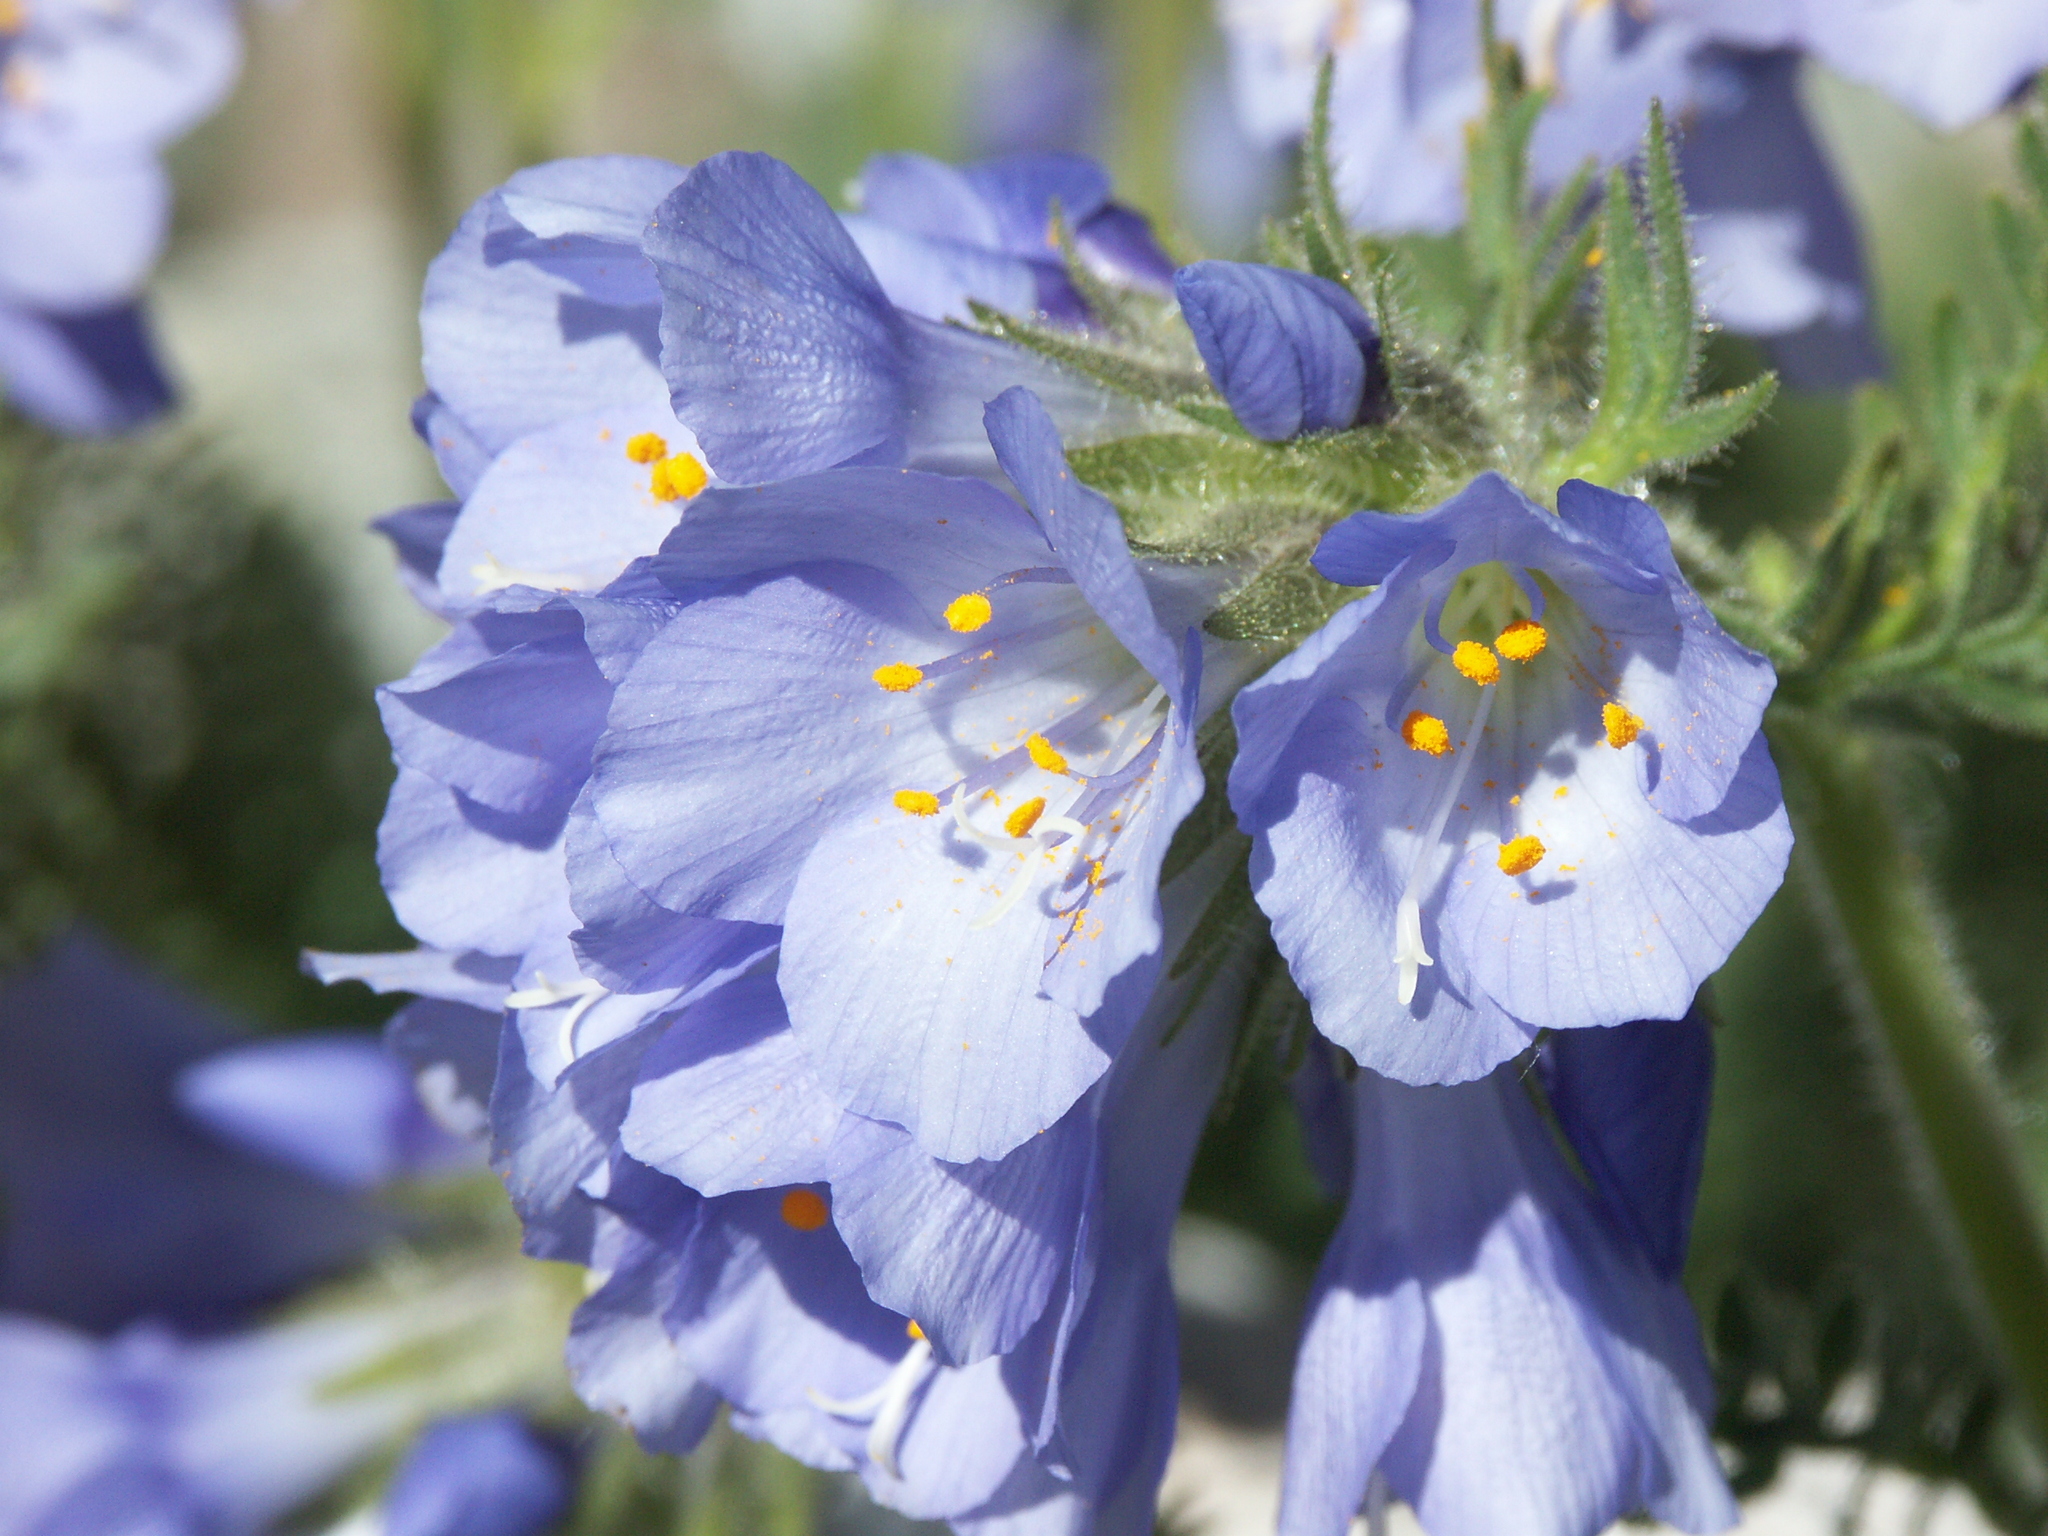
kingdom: Plantae
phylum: Tracheophyta
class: Magnoliopsida
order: Ericales
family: Polemoniaceae
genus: Polemonium
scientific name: Polemonium viscosum
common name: Skunk jacob's-ladder
